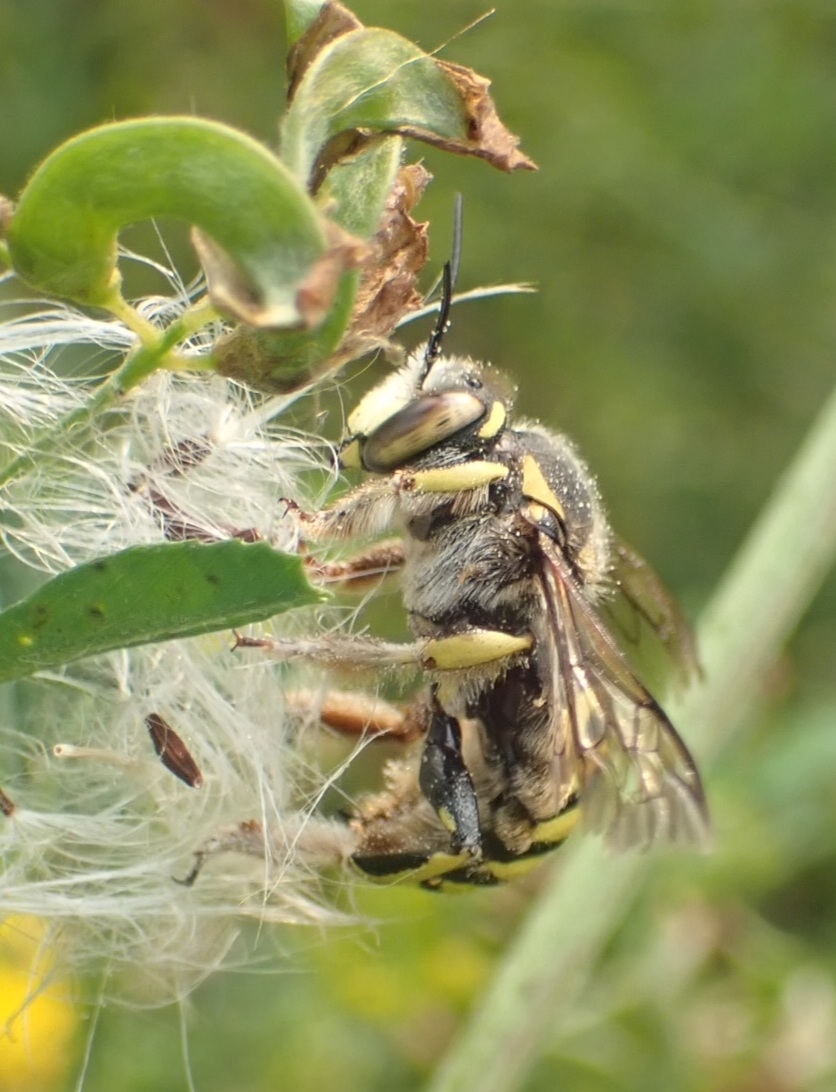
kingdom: Animalia
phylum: Arthropoda
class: Insecta
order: Hymenoptera
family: Megachilidae
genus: Anthidium
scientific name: Anthidium florentinum
